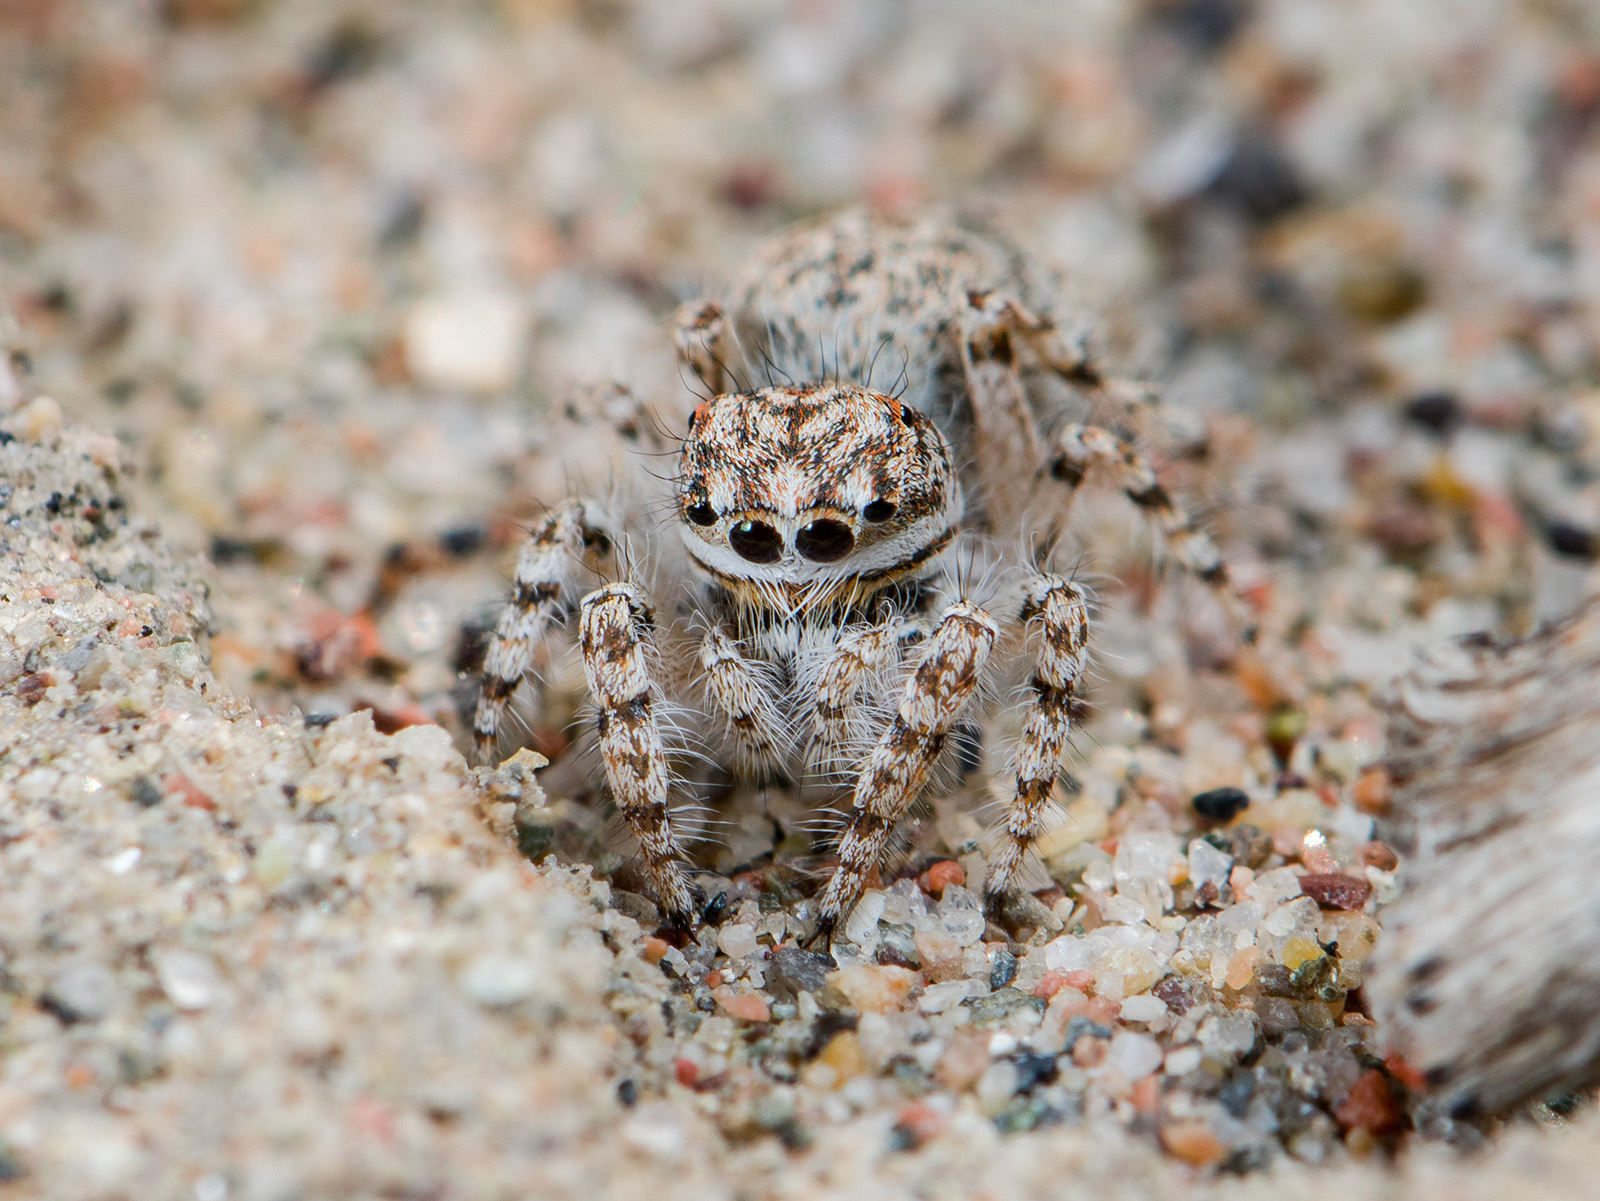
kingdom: Animalia
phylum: Arthropoda
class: Arachnida
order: Araneae
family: Salticidae
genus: Yllenus
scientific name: Yllenus uiguricus
